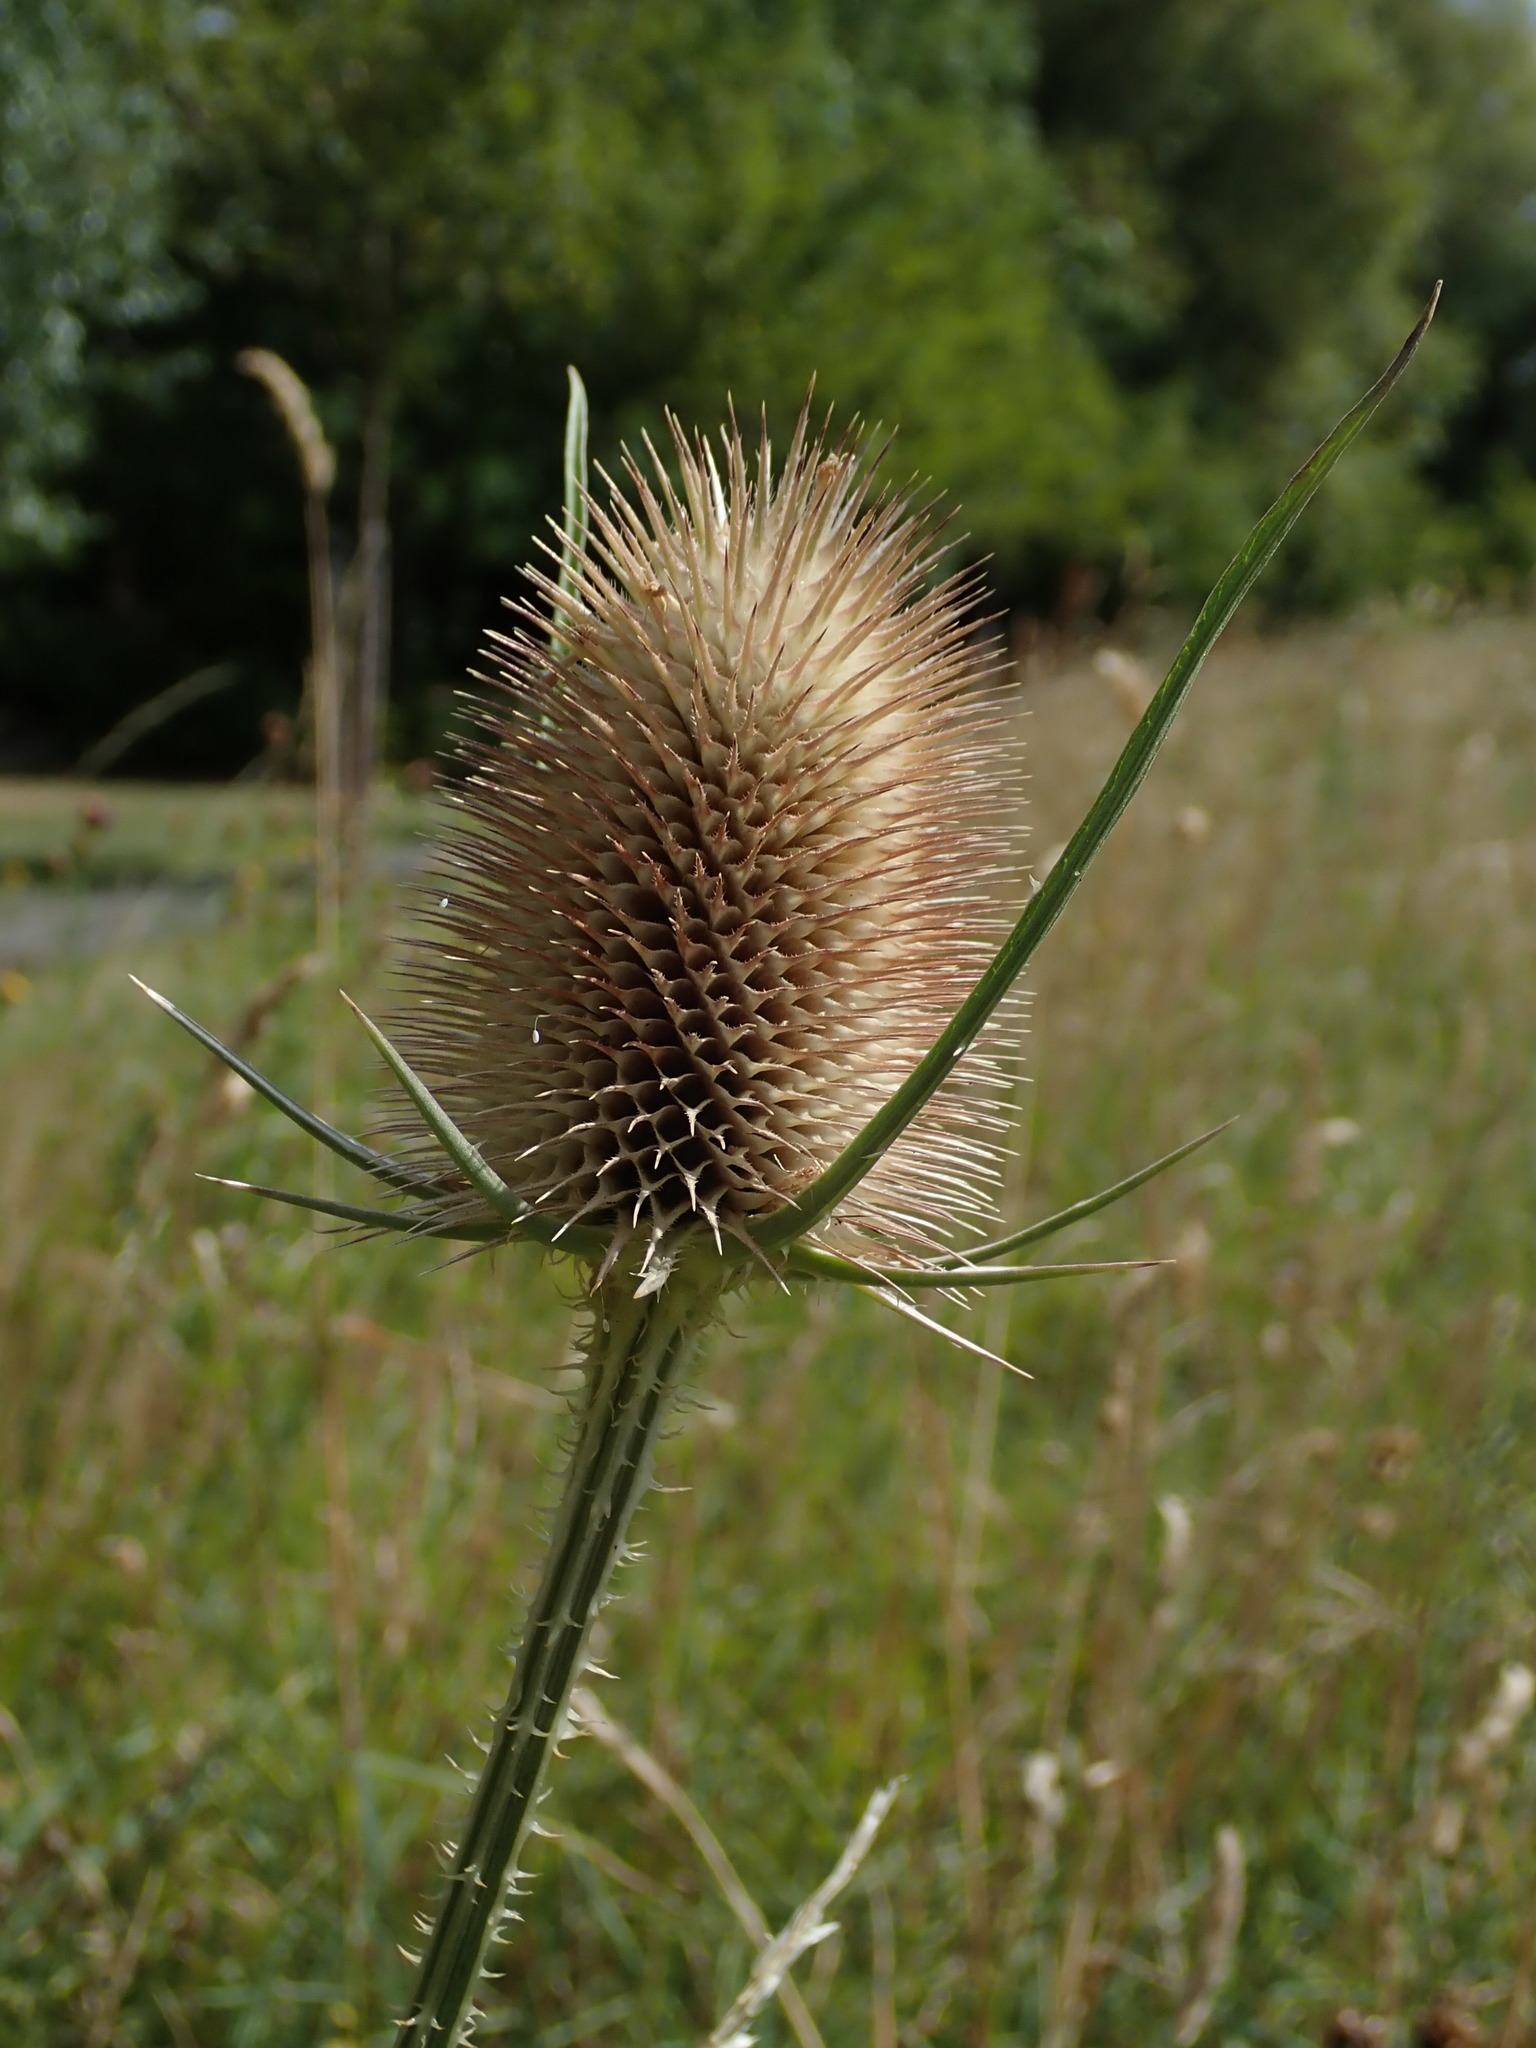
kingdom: Plantae
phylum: Tracheophyta
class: Magnoliopsida
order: Dipsacales
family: Caprifoliaceae
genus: Dipsacus
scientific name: Dipsacus fullonum
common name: Teasel
